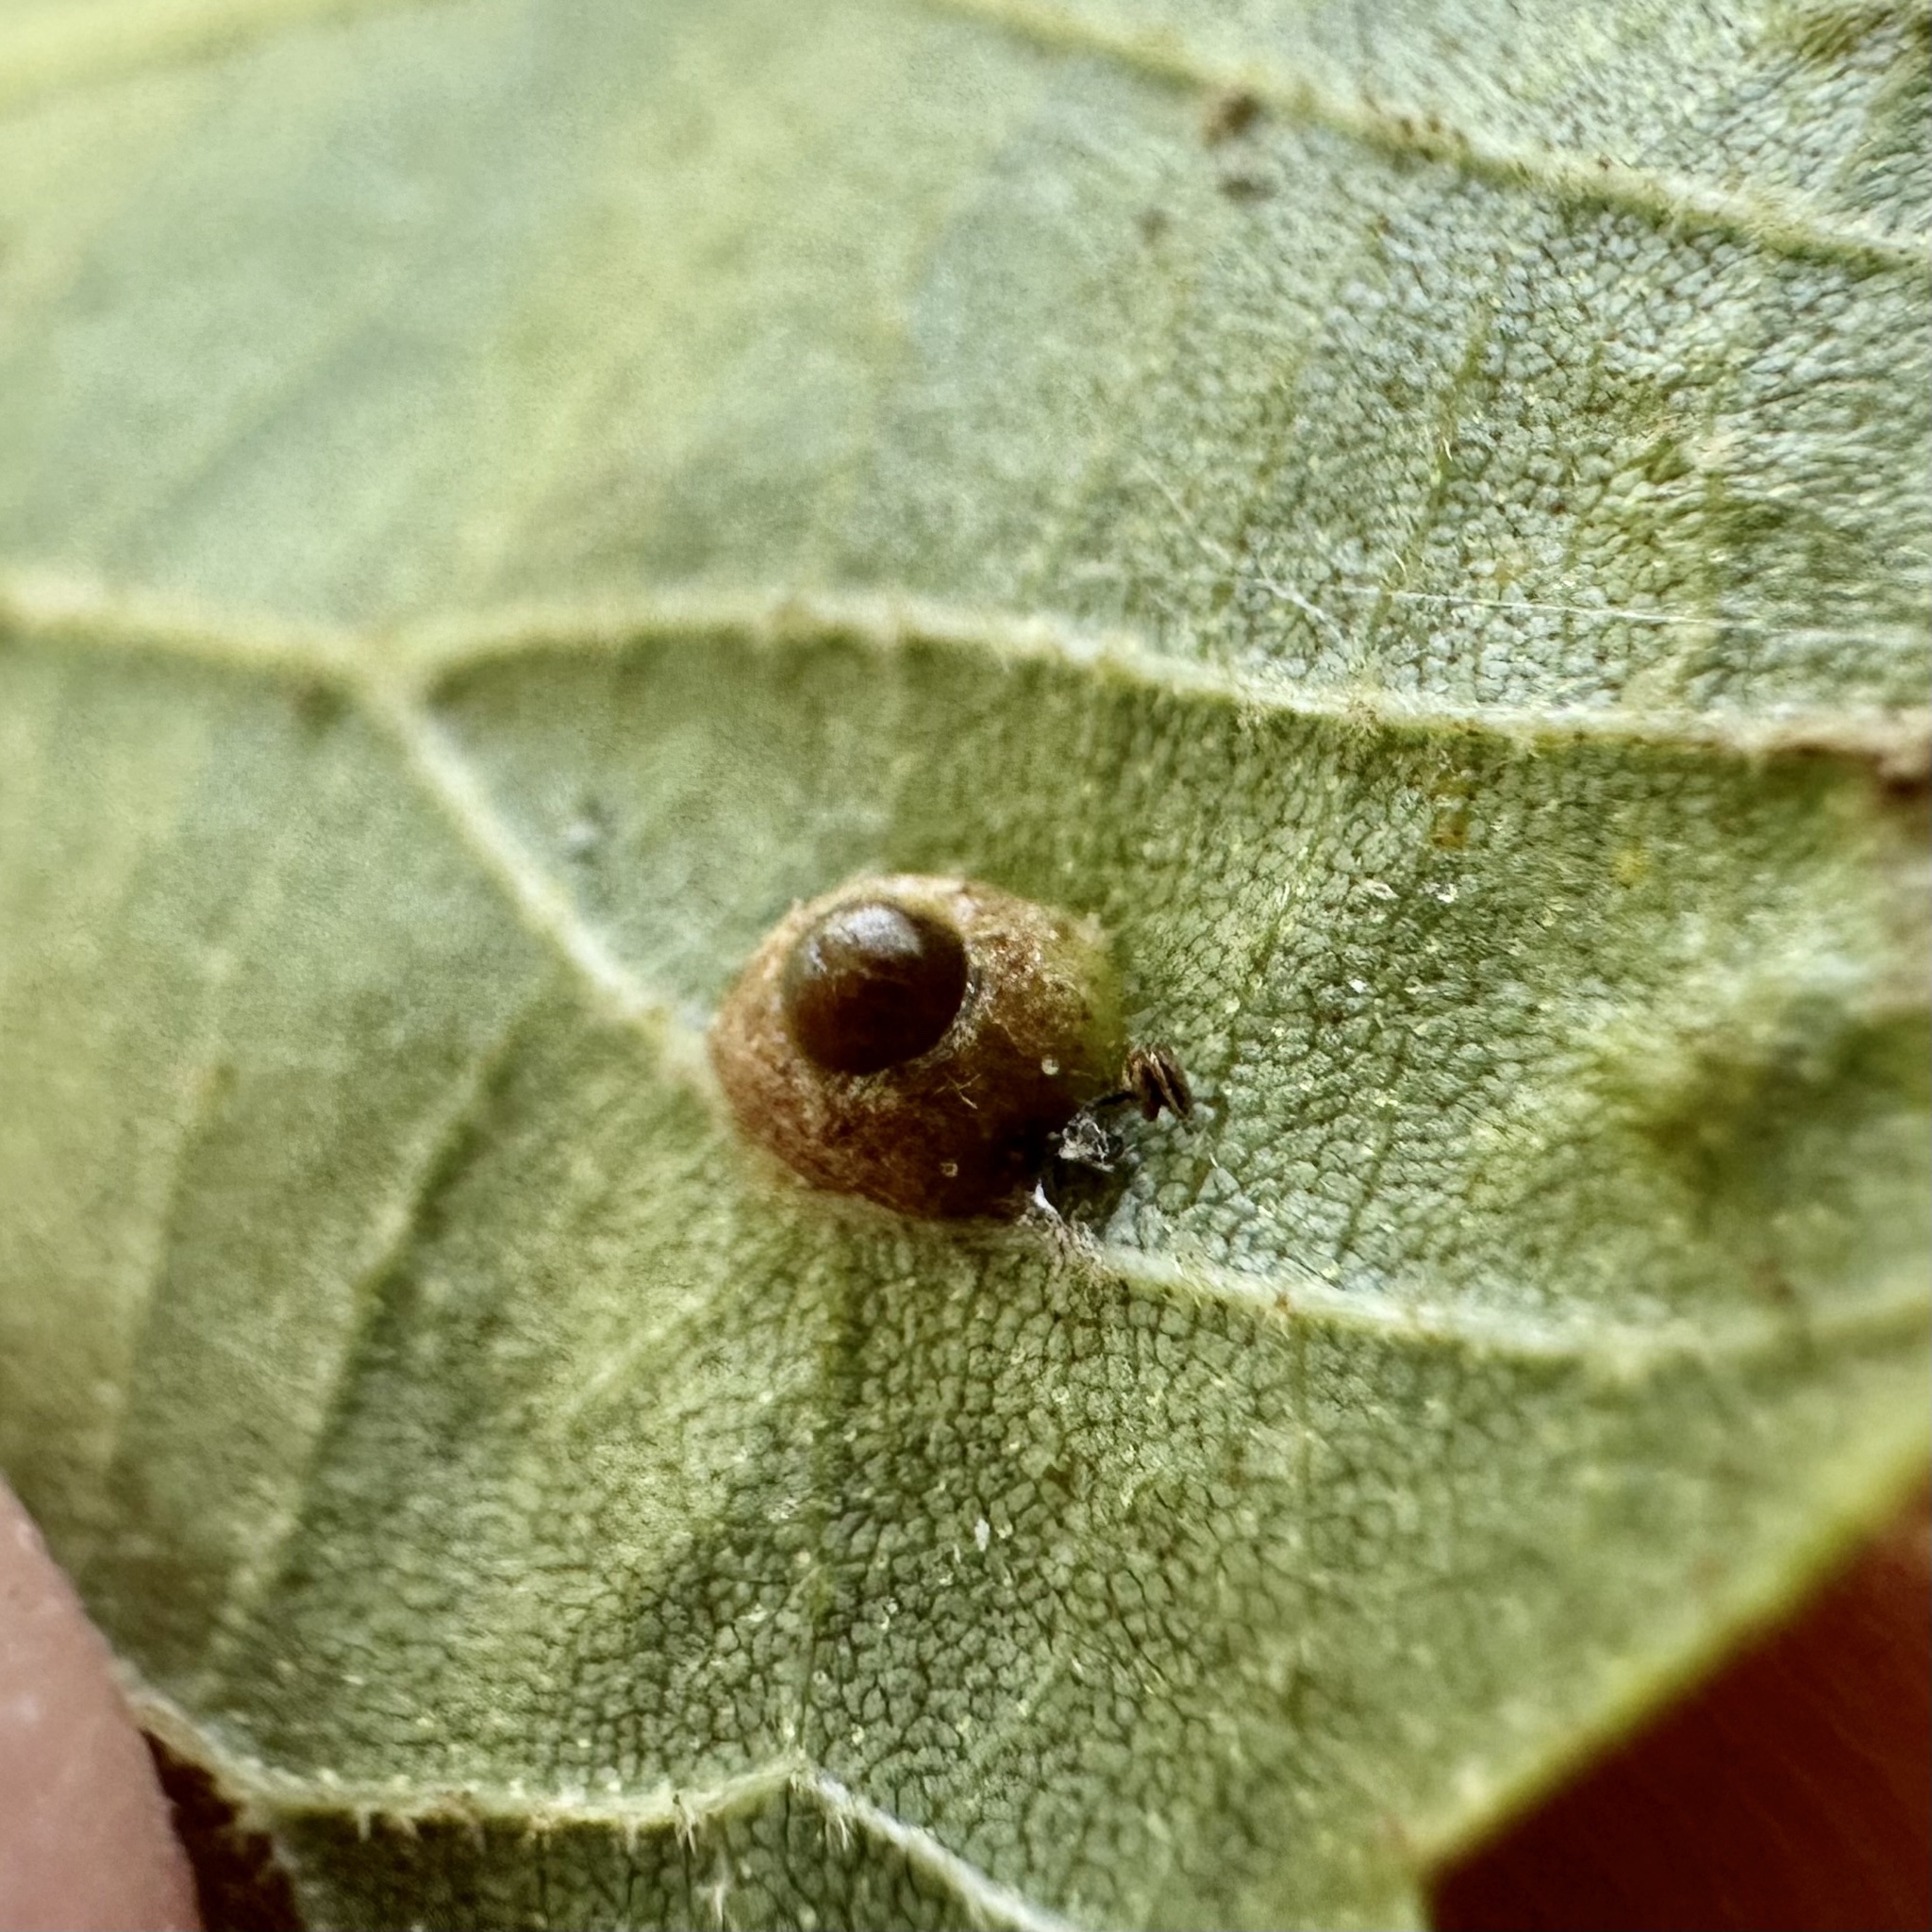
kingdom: Animalia
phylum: Arthropoda
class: Insecta
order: Diptera
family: Cecidomyiidae
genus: Caryomyia
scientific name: Caryomyia tubicola
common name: Hickory bullet gall midge
